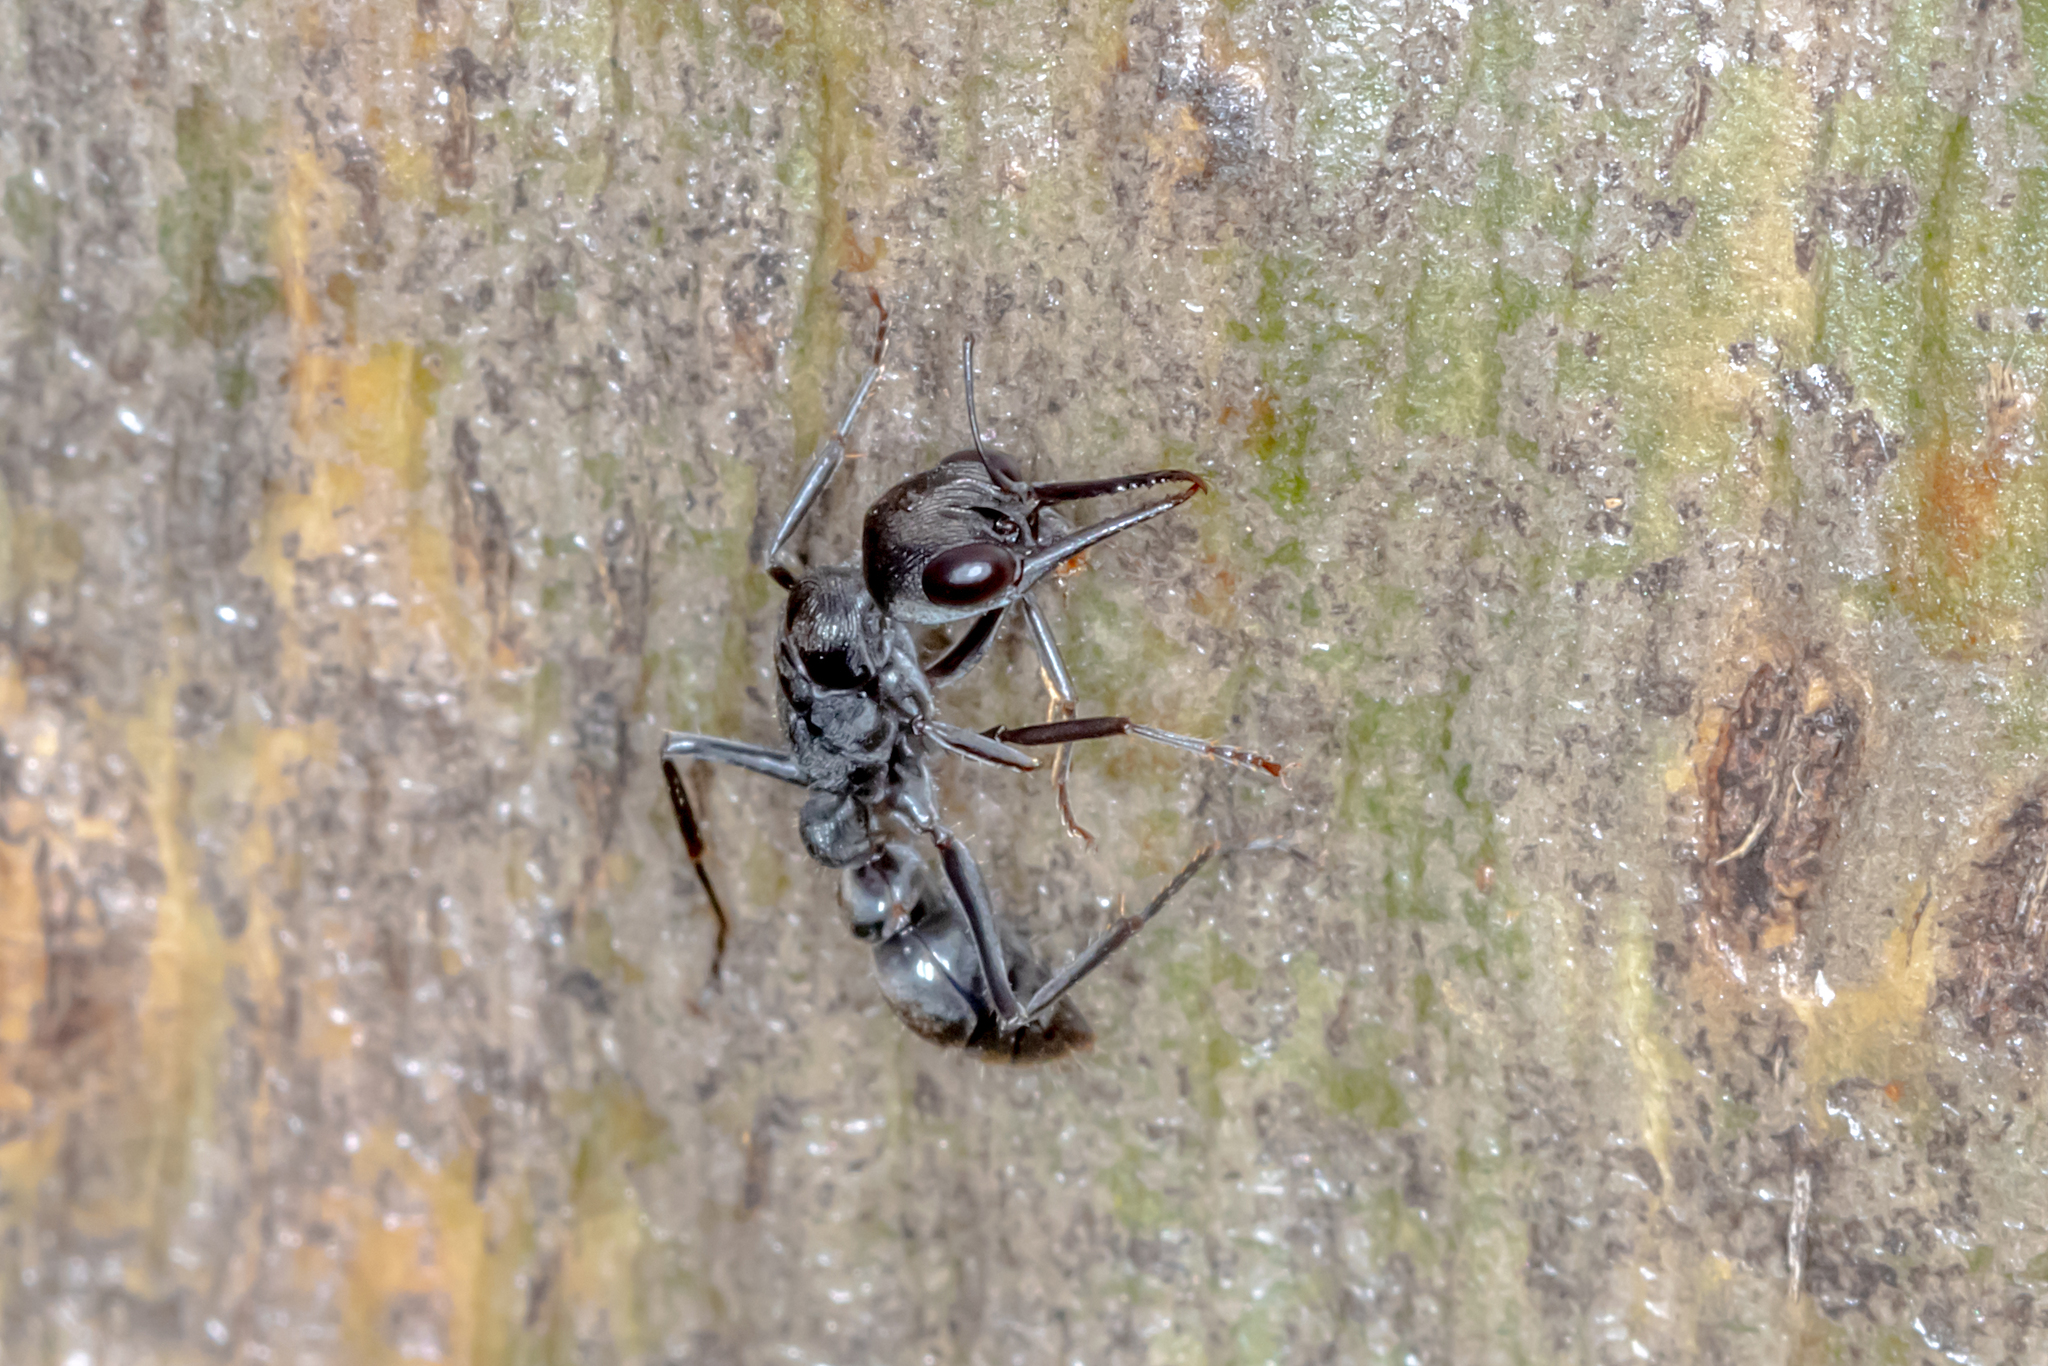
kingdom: Animalia
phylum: Arthropoda
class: Insecta
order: Hymenoptera
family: Formicidae
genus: Myrmecia
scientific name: Myrmecia tepperi
